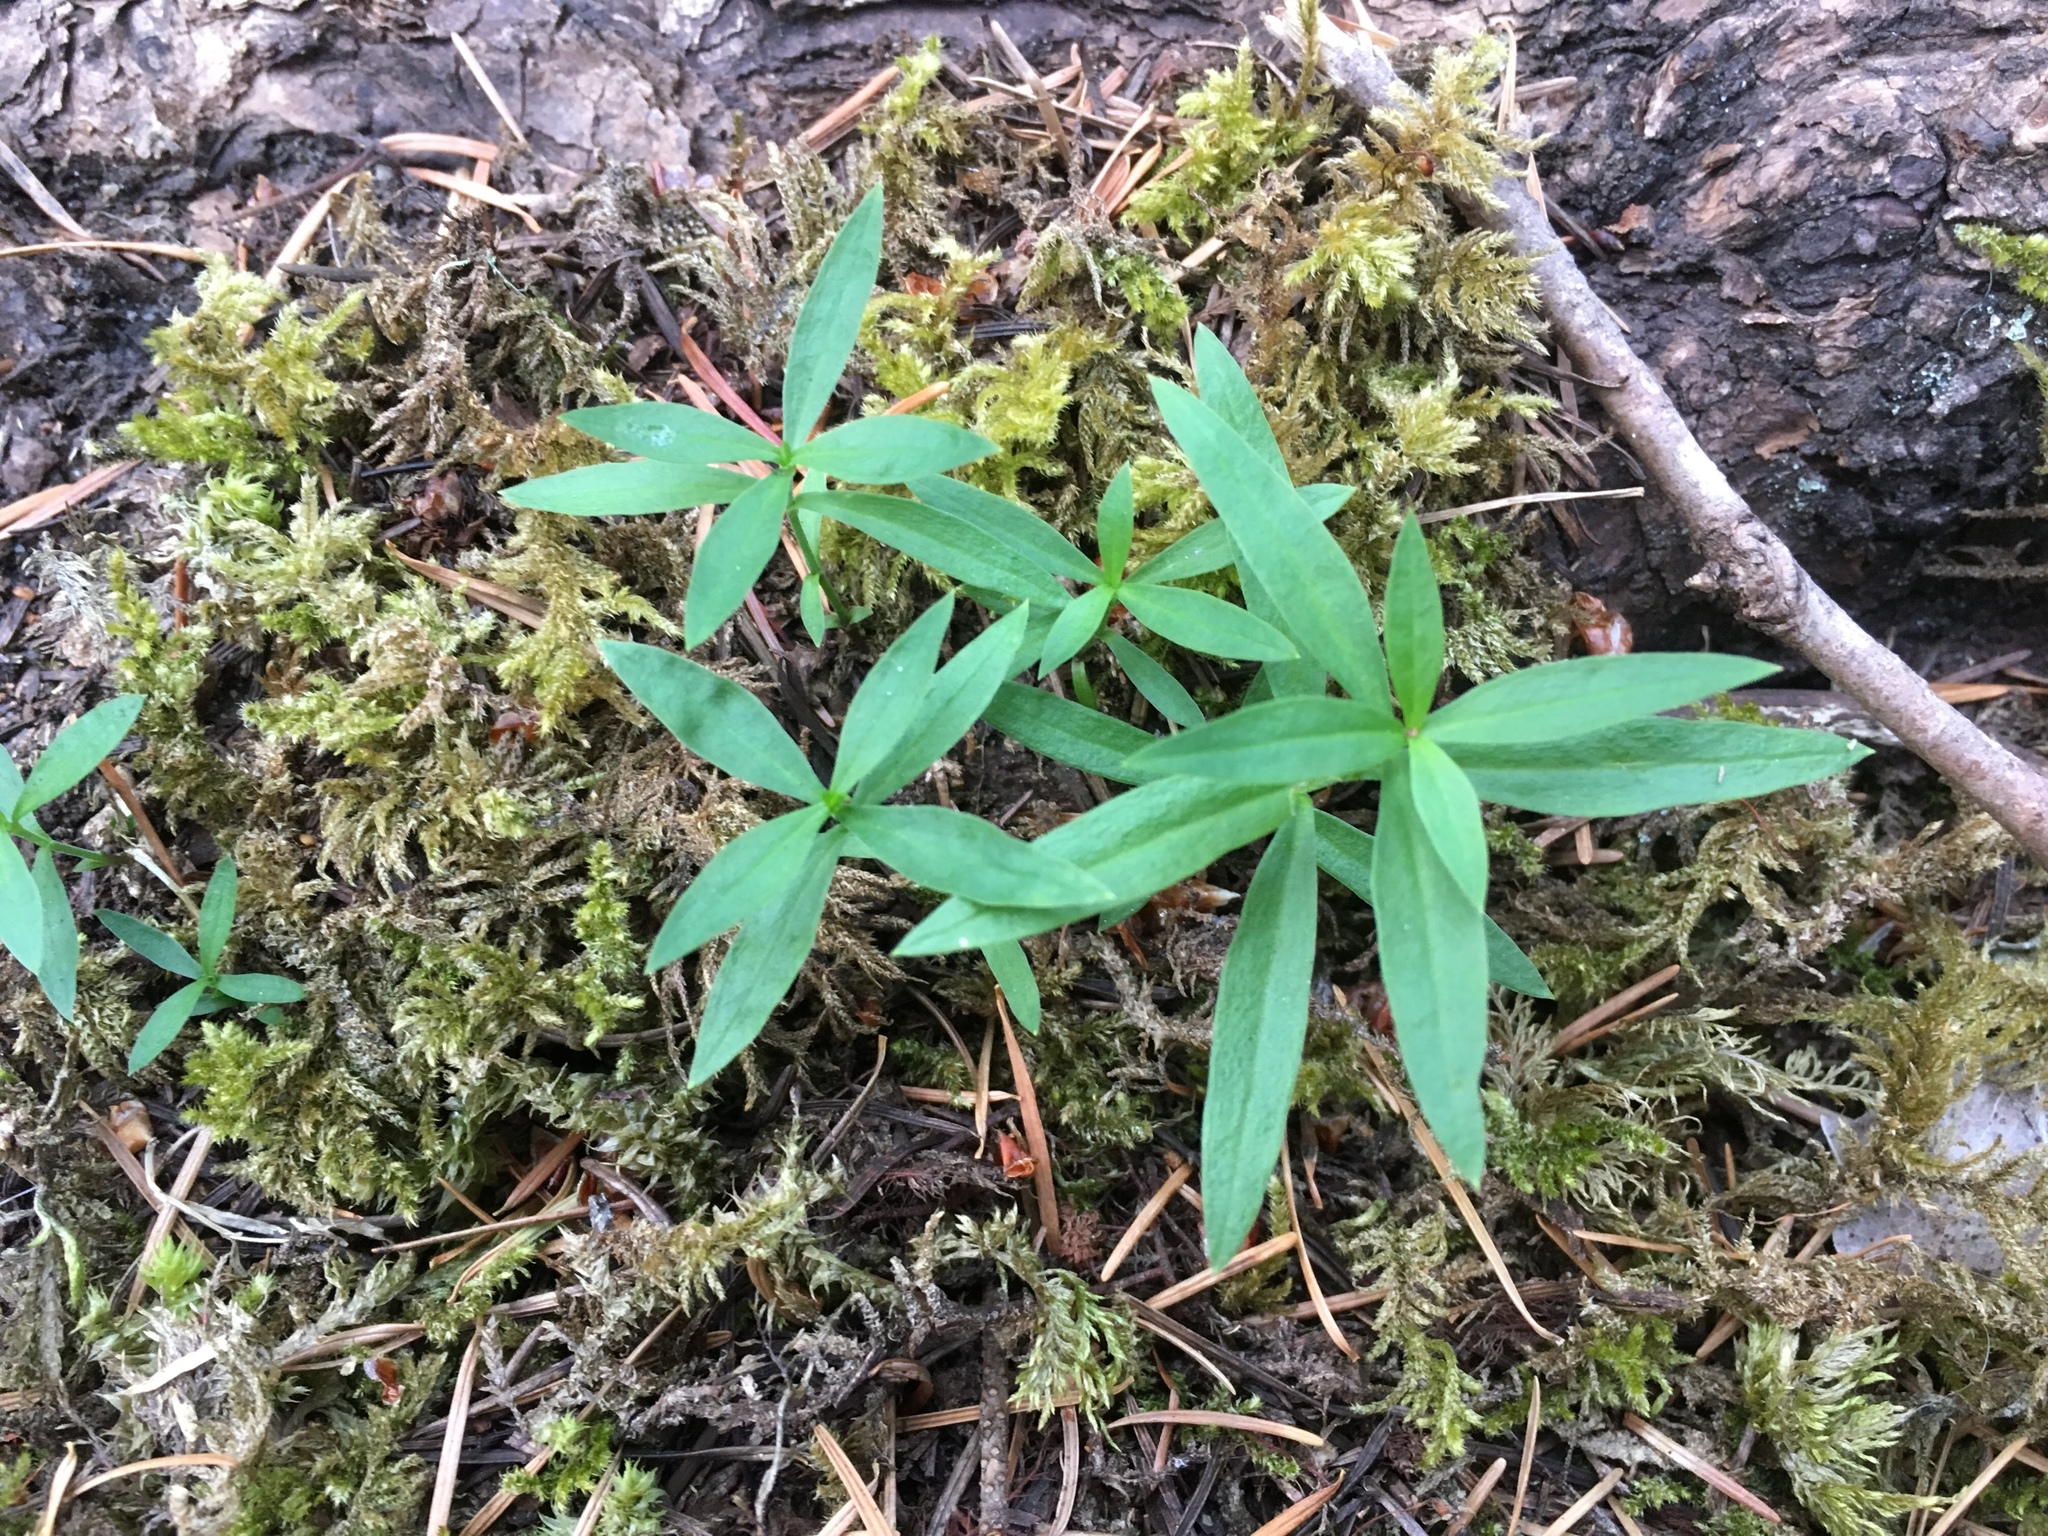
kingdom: Plantae
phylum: Tracheophyta
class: Magnoliopsida
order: Caryophyllales
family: Caryophyllaceae
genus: Moehringia
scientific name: Moehringia macrophylla
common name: Big-leaf sandwort
